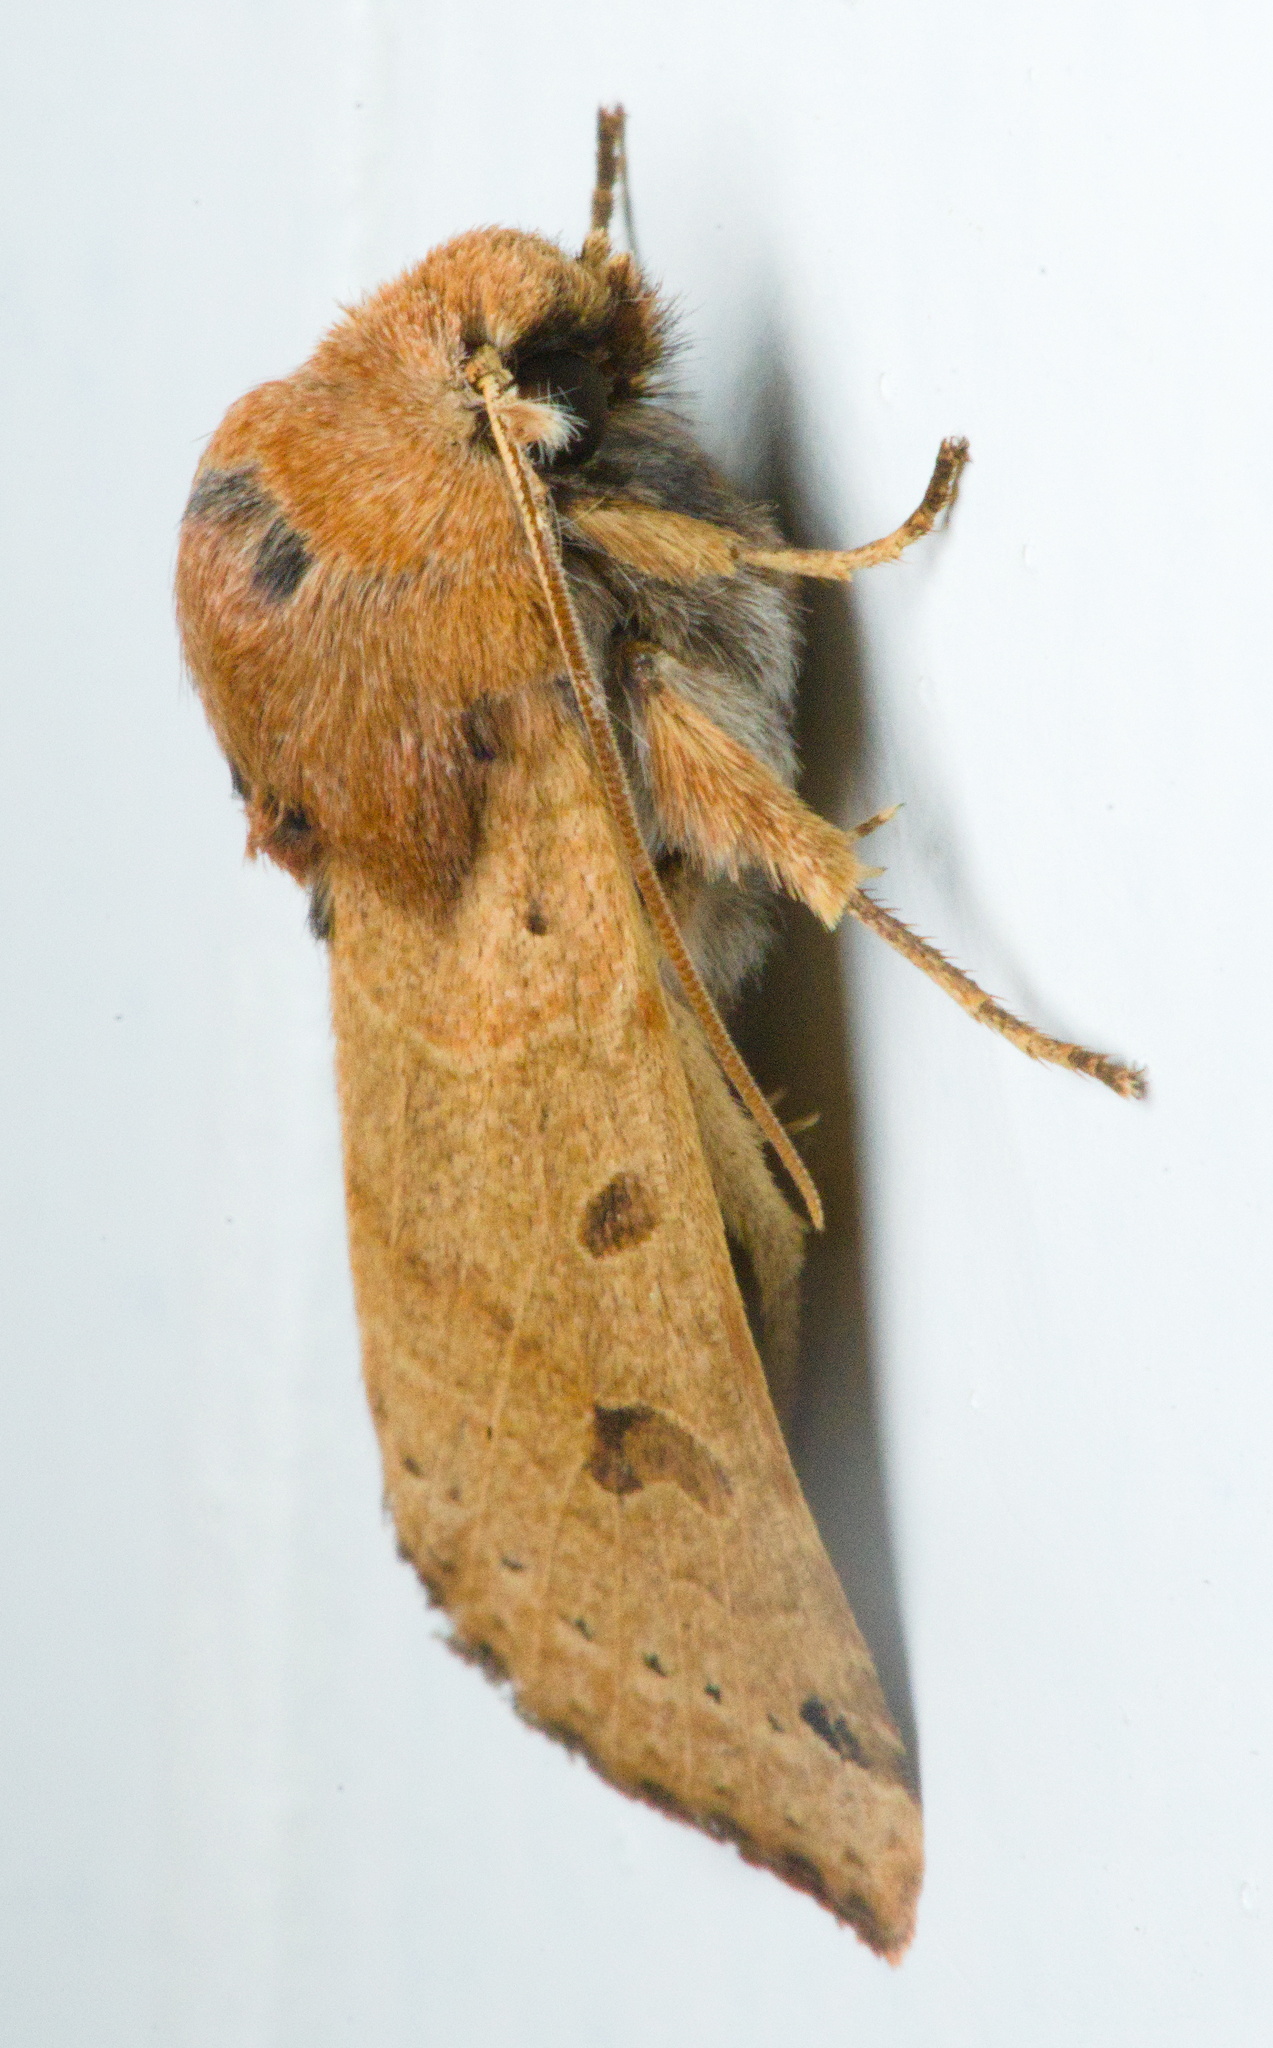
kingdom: Animalia
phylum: Arthropoda
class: Insecta
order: Lepidoptera
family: Noctuidae
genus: Agrochola
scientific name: Agrochola lunosa
